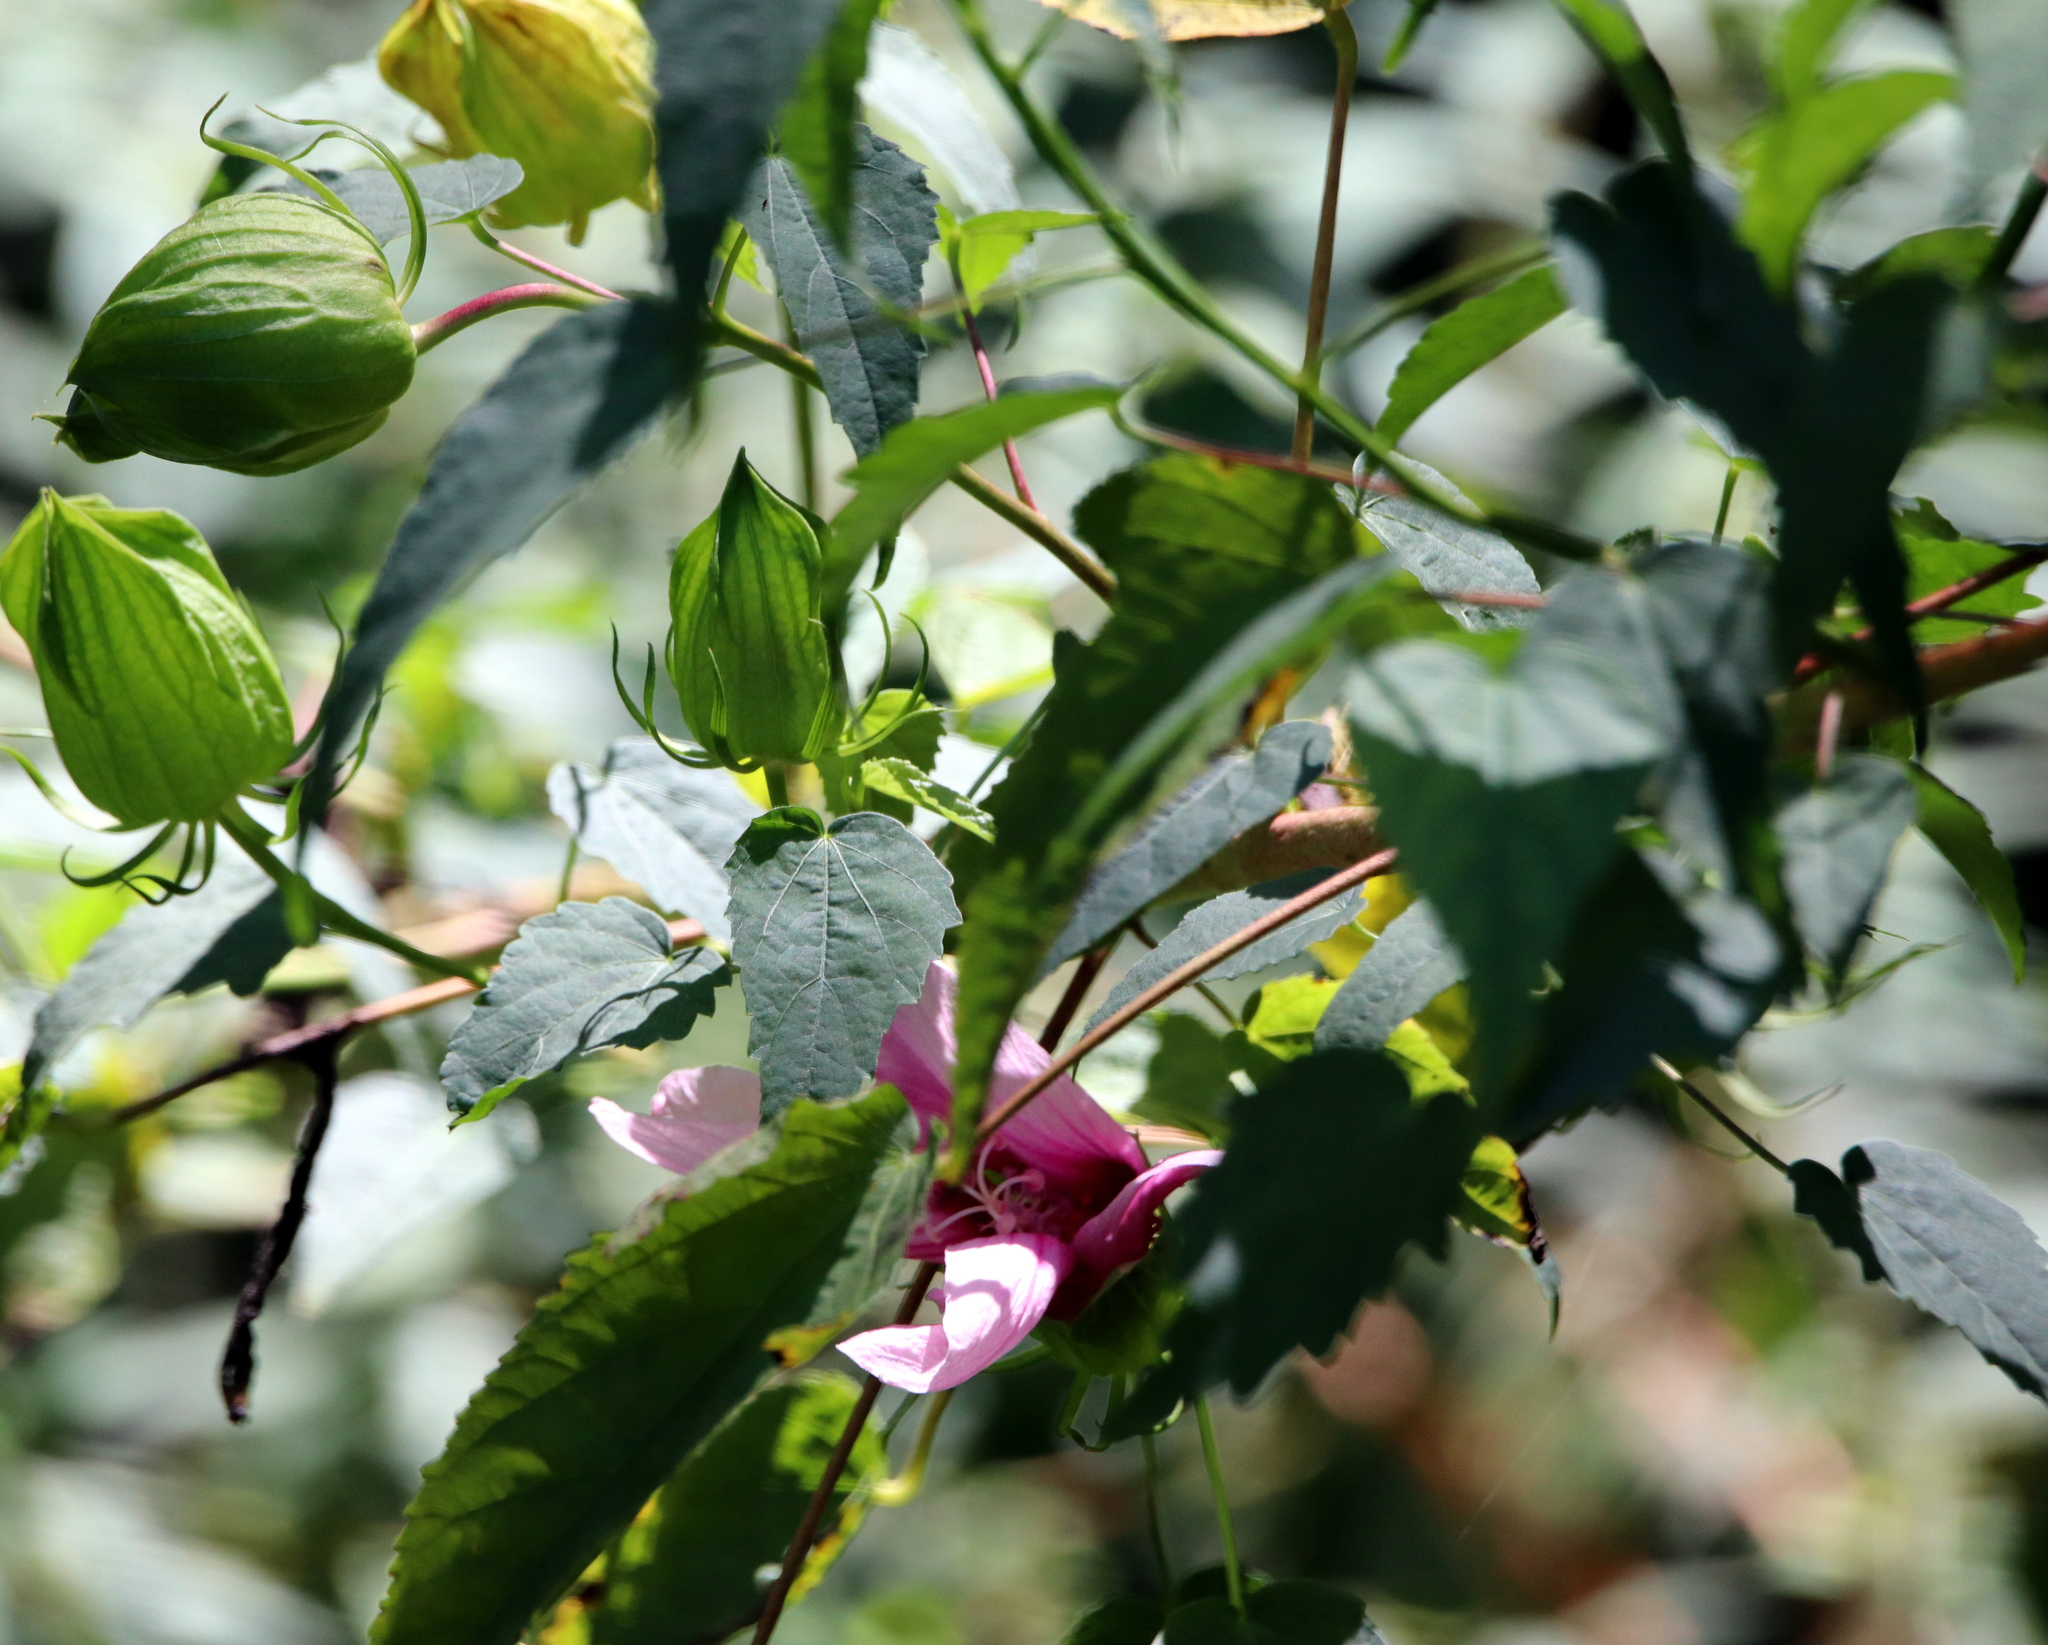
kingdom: Plantae
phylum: Tracheophyta
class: Magnoliopsida
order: Malvales
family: Malvaceae
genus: Hibiscus
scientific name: Hibiscus laevis
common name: Scarlet rose-mallow
